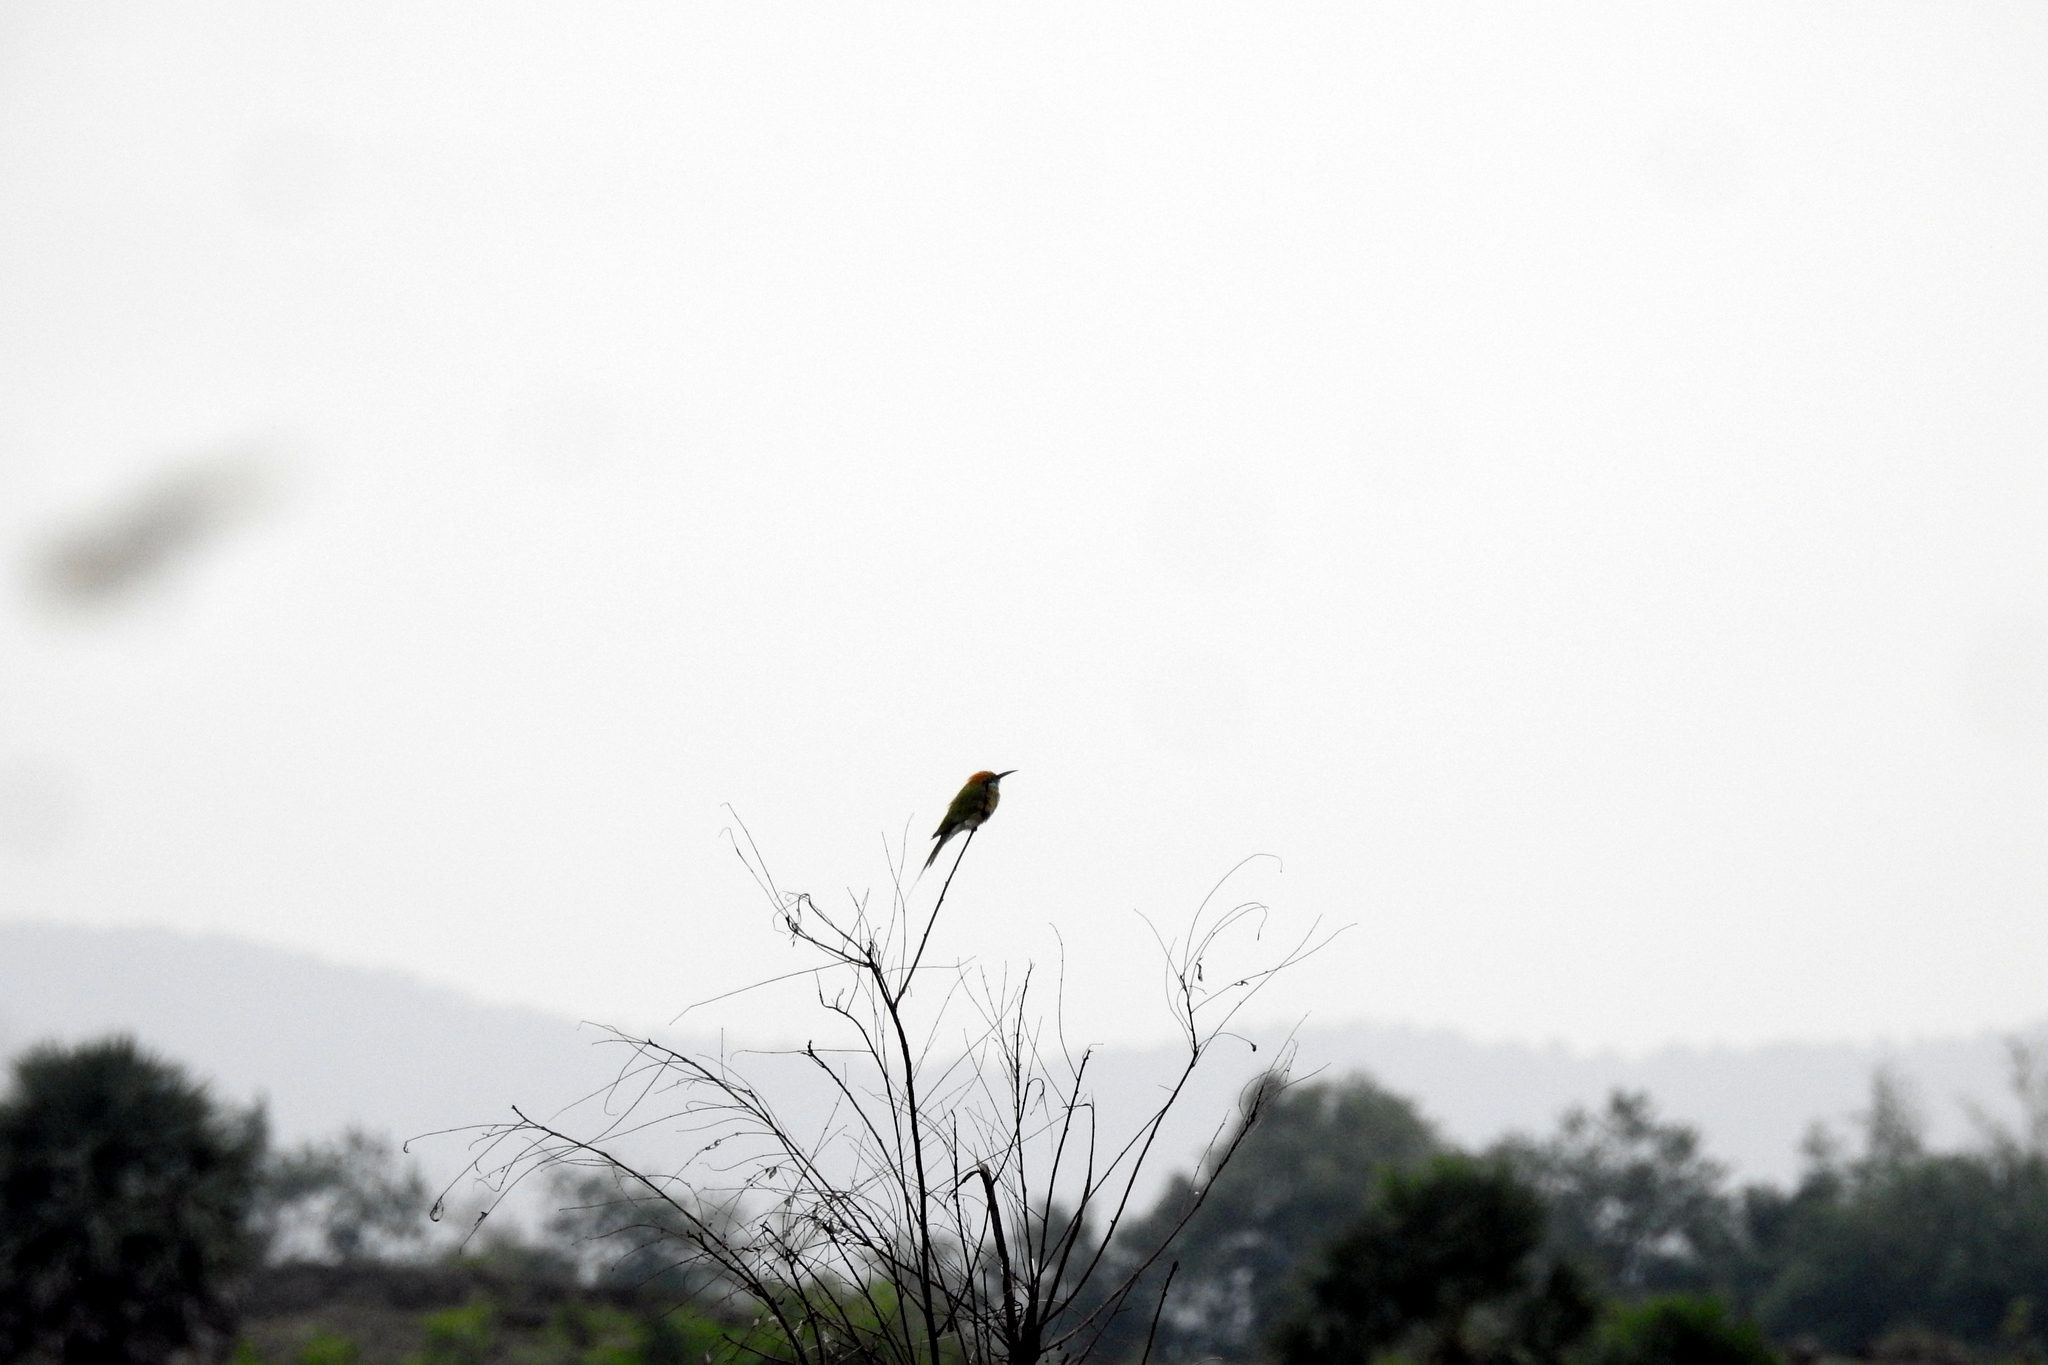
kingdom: Animalia
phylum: Chordata
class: Aves
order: Coraciiformes
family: Meropidae
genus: Merops
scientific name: Merops orientalis
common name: Green bee-eater
